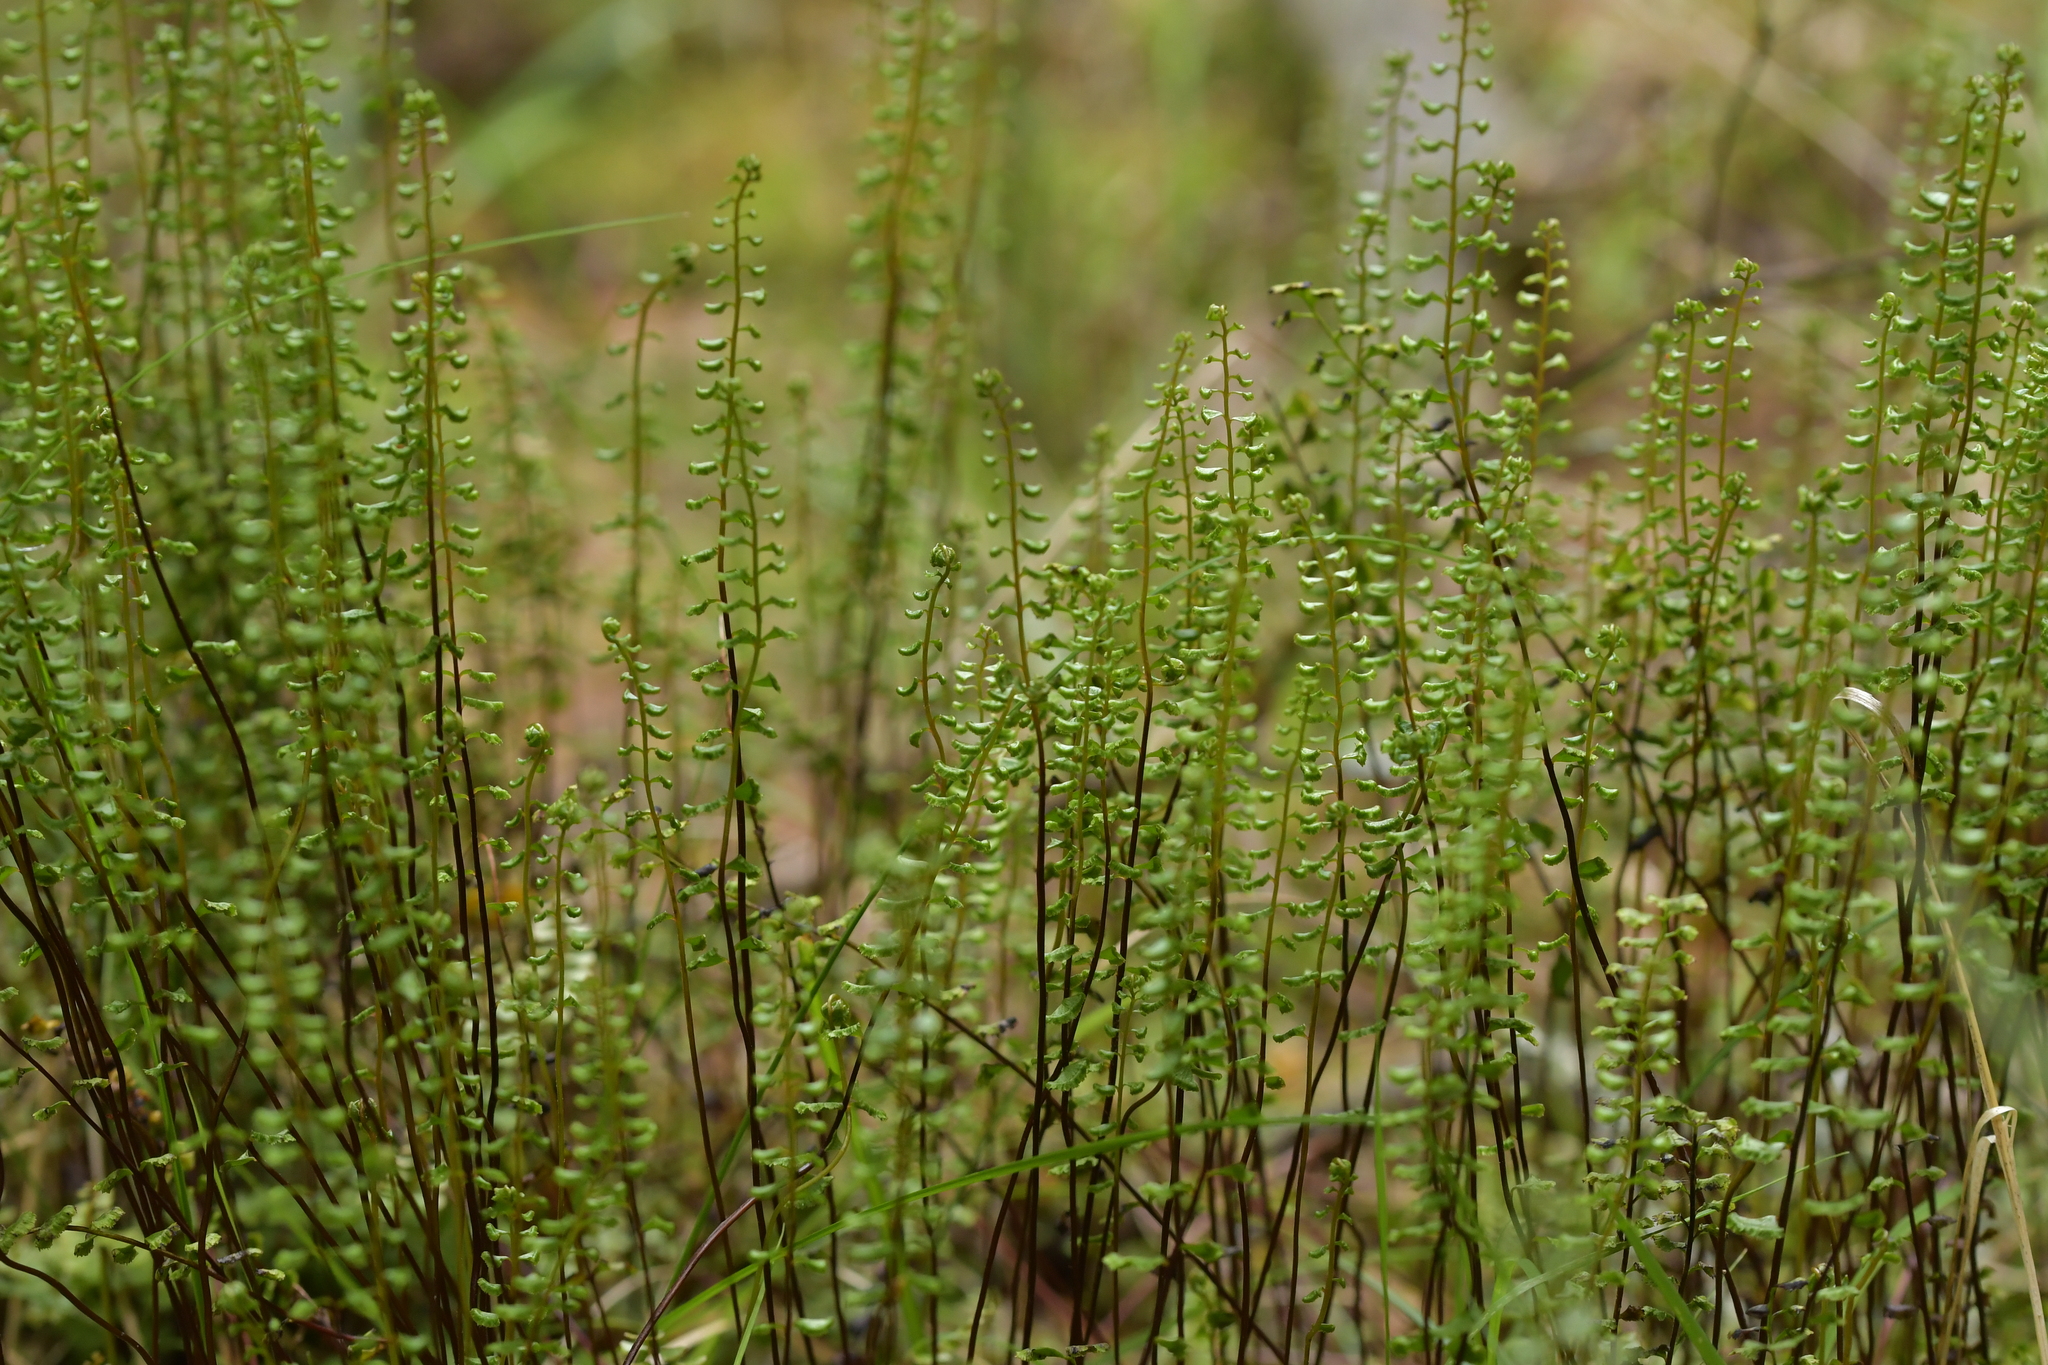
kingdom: Plantae
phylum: Tracheophyta
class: Polypodiopsida
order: Polypodiales
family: Lindsaeaceae
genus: Lindsaea
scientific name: Lindsaea linearis
